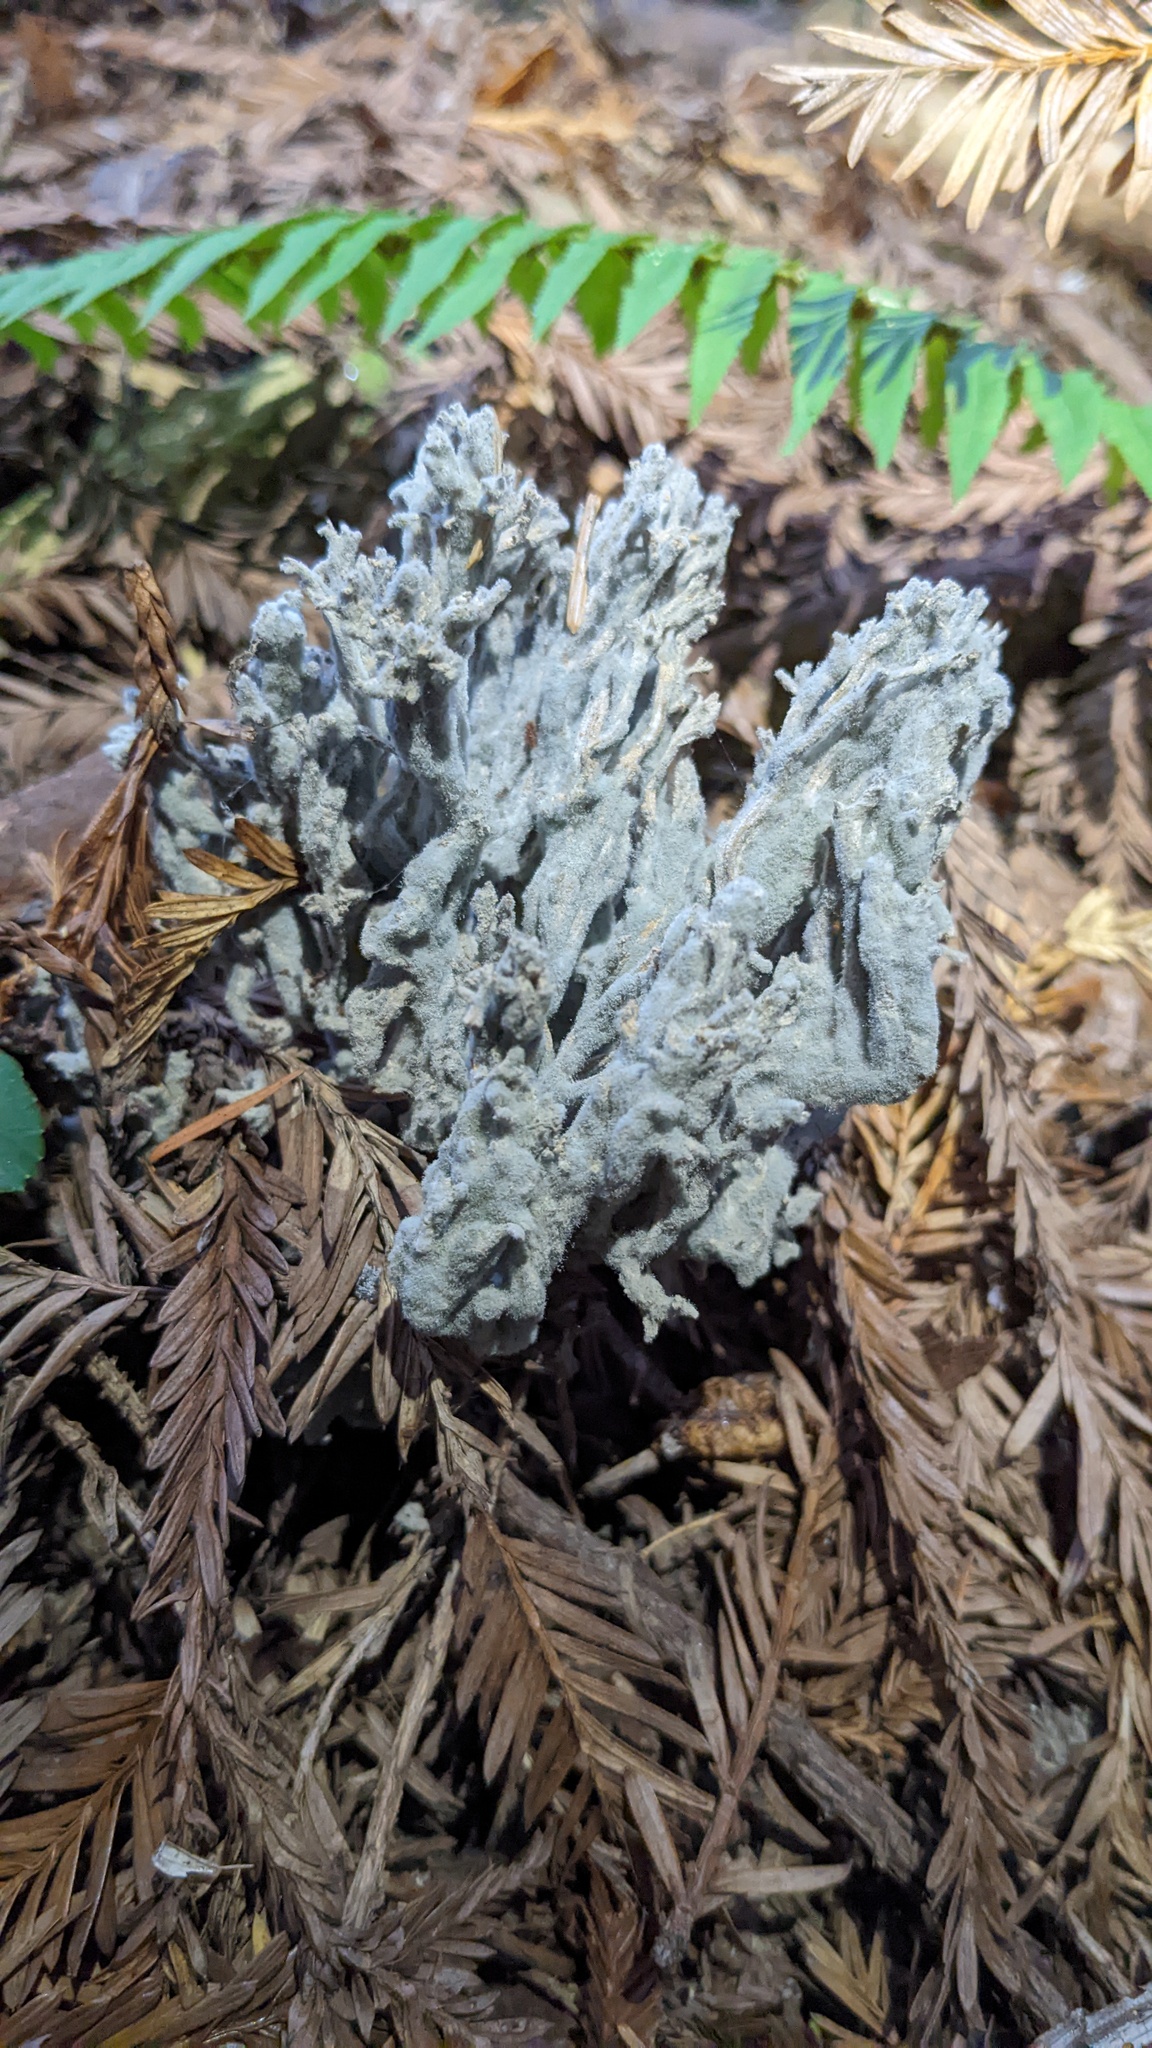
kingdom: Fungi
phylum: Ascomycota
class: Sordariomycetes
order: Sordariales
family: Helminthosphaeriaceae
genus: Helminthosphaeria
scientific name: Helminthosphaeria clavariarum
